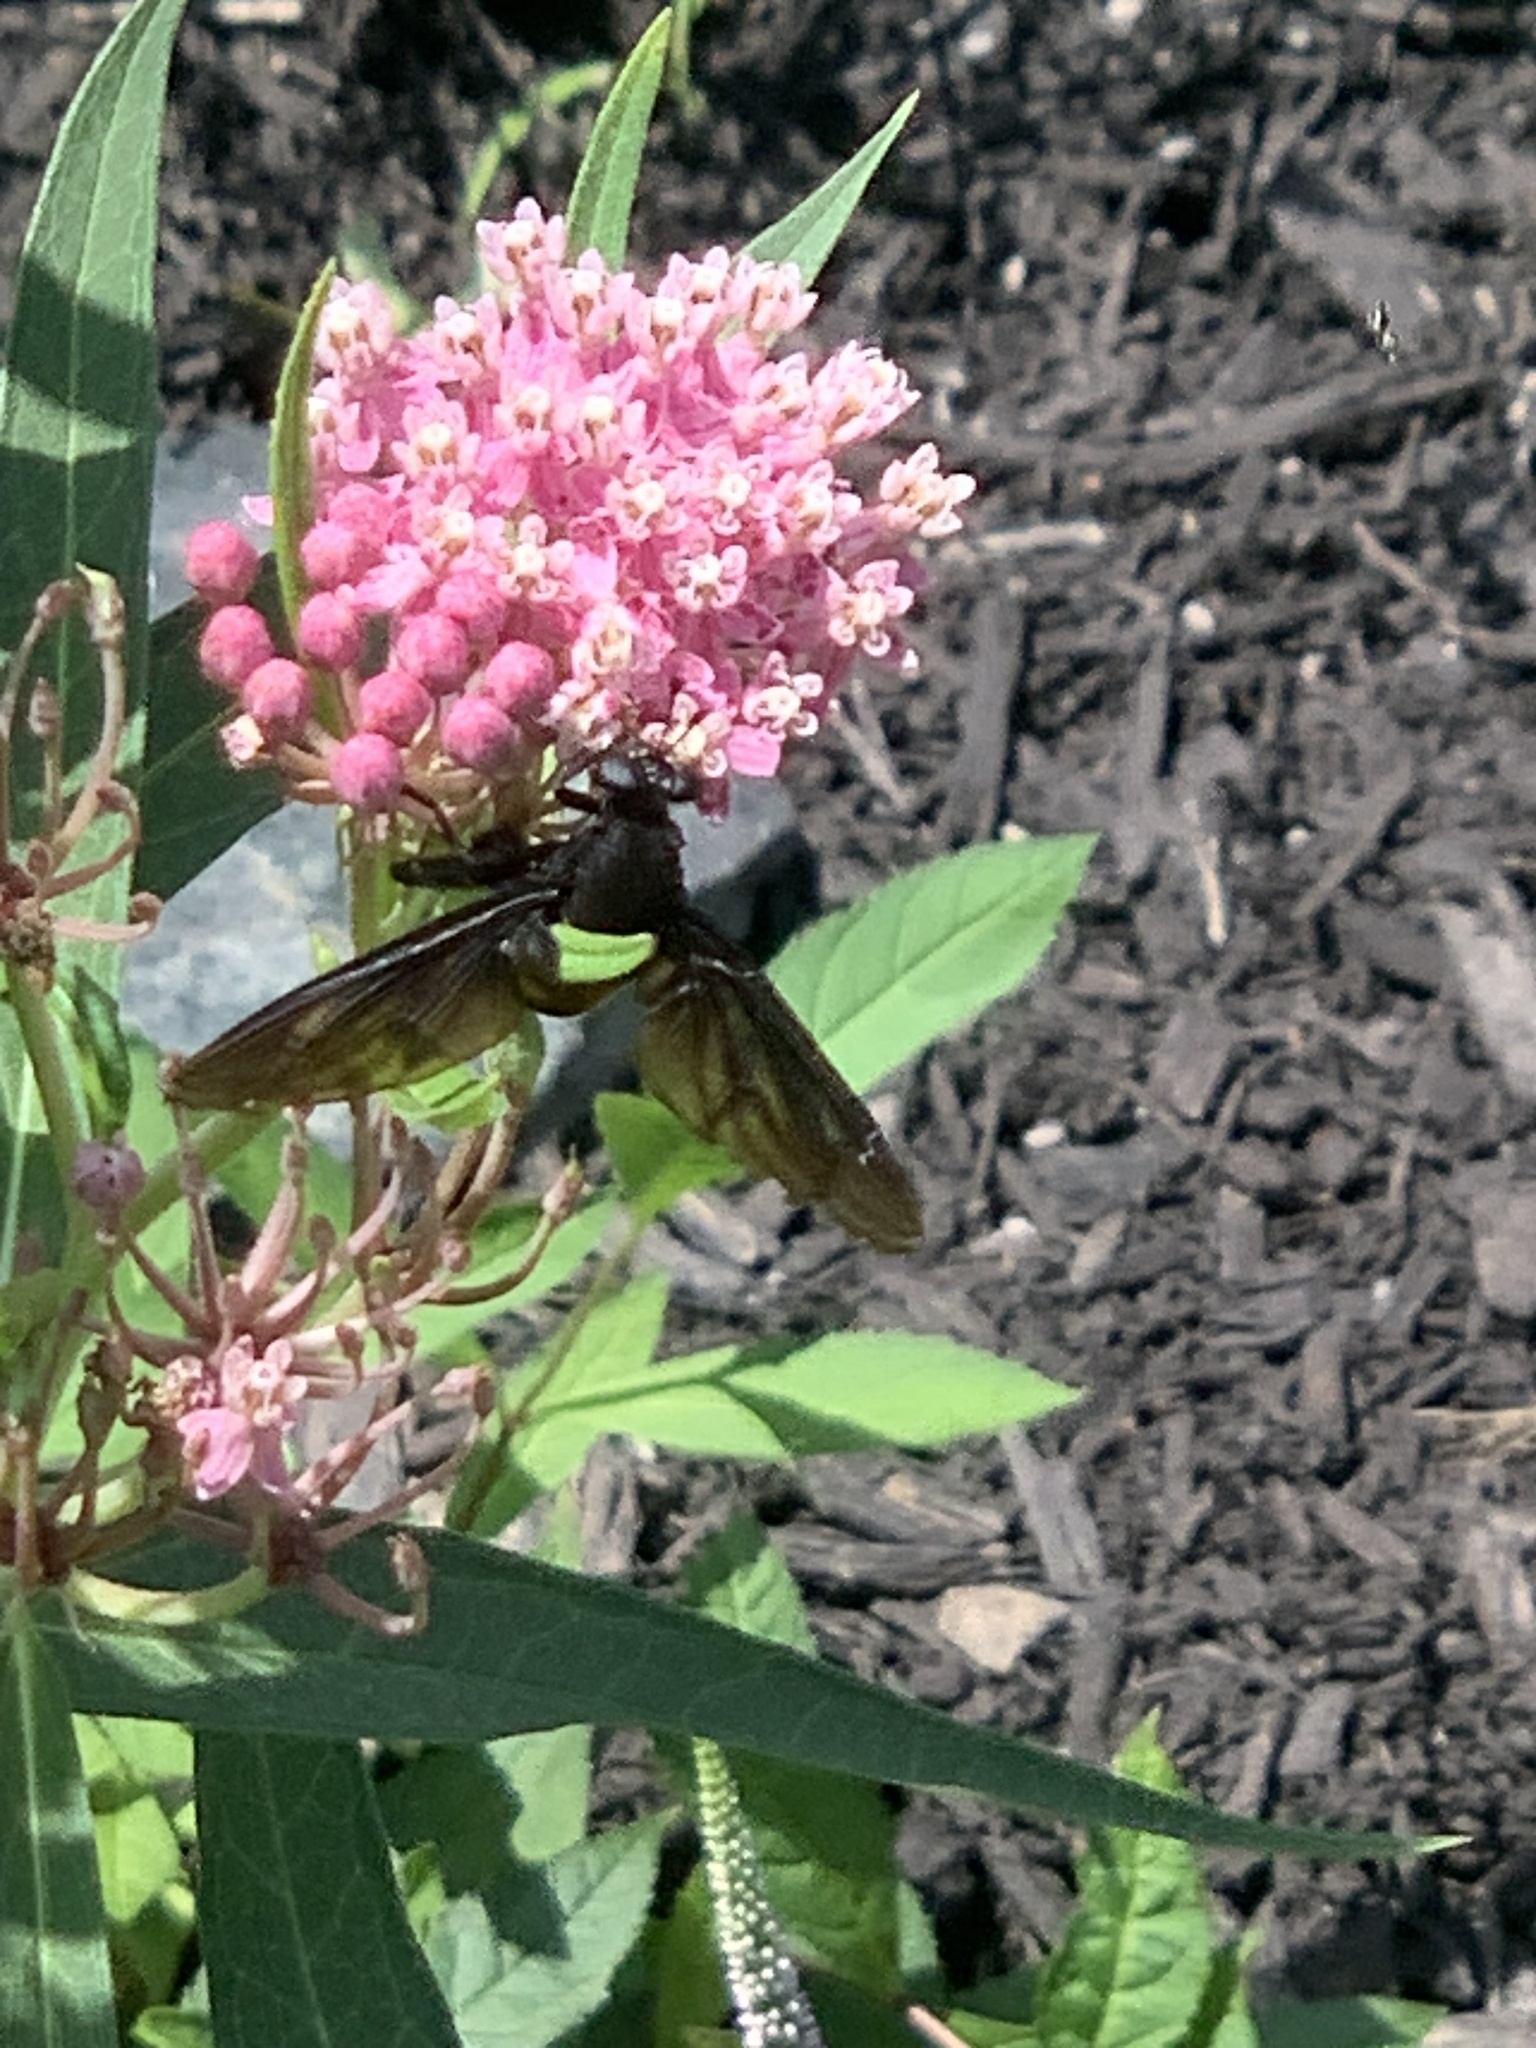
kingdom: Animalia
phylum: Arthropoda
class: Insecta
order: Diptera
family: Mydidae
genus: Mydas
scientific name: Mydas clavatus
